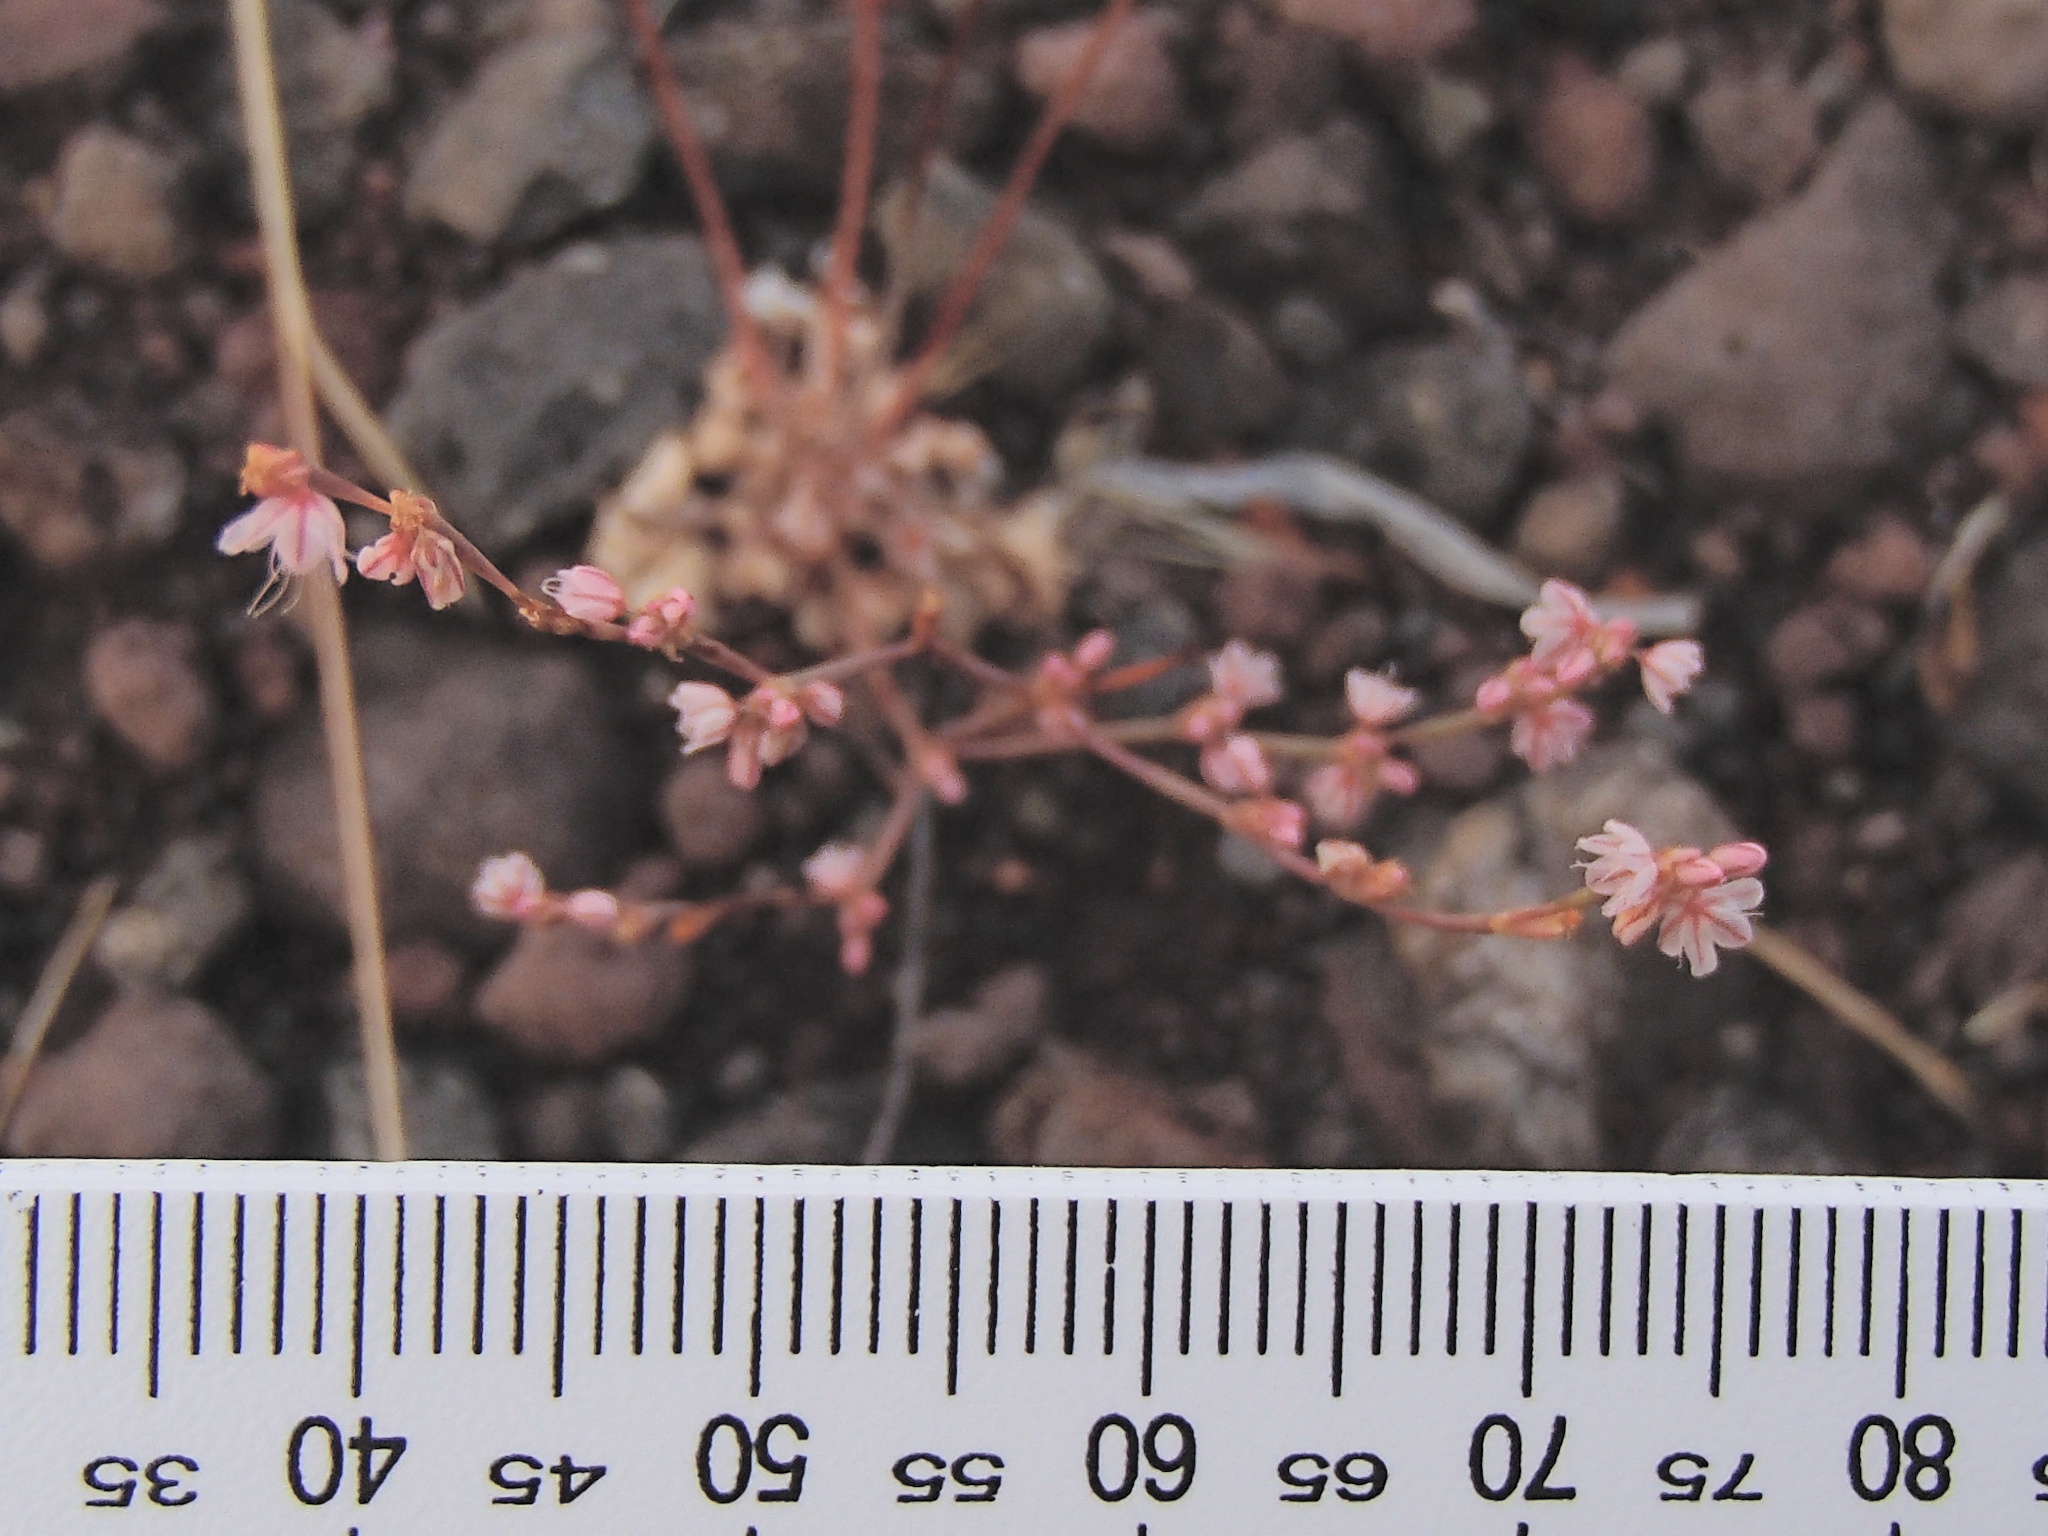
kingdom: Plantae
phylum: Tracheophyta
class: Magnoliopsida
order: Caryophyllales
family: Polygonaceae
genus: Eriogonum
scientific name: Eriogonum vimineum
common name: Wicker buckwheat
